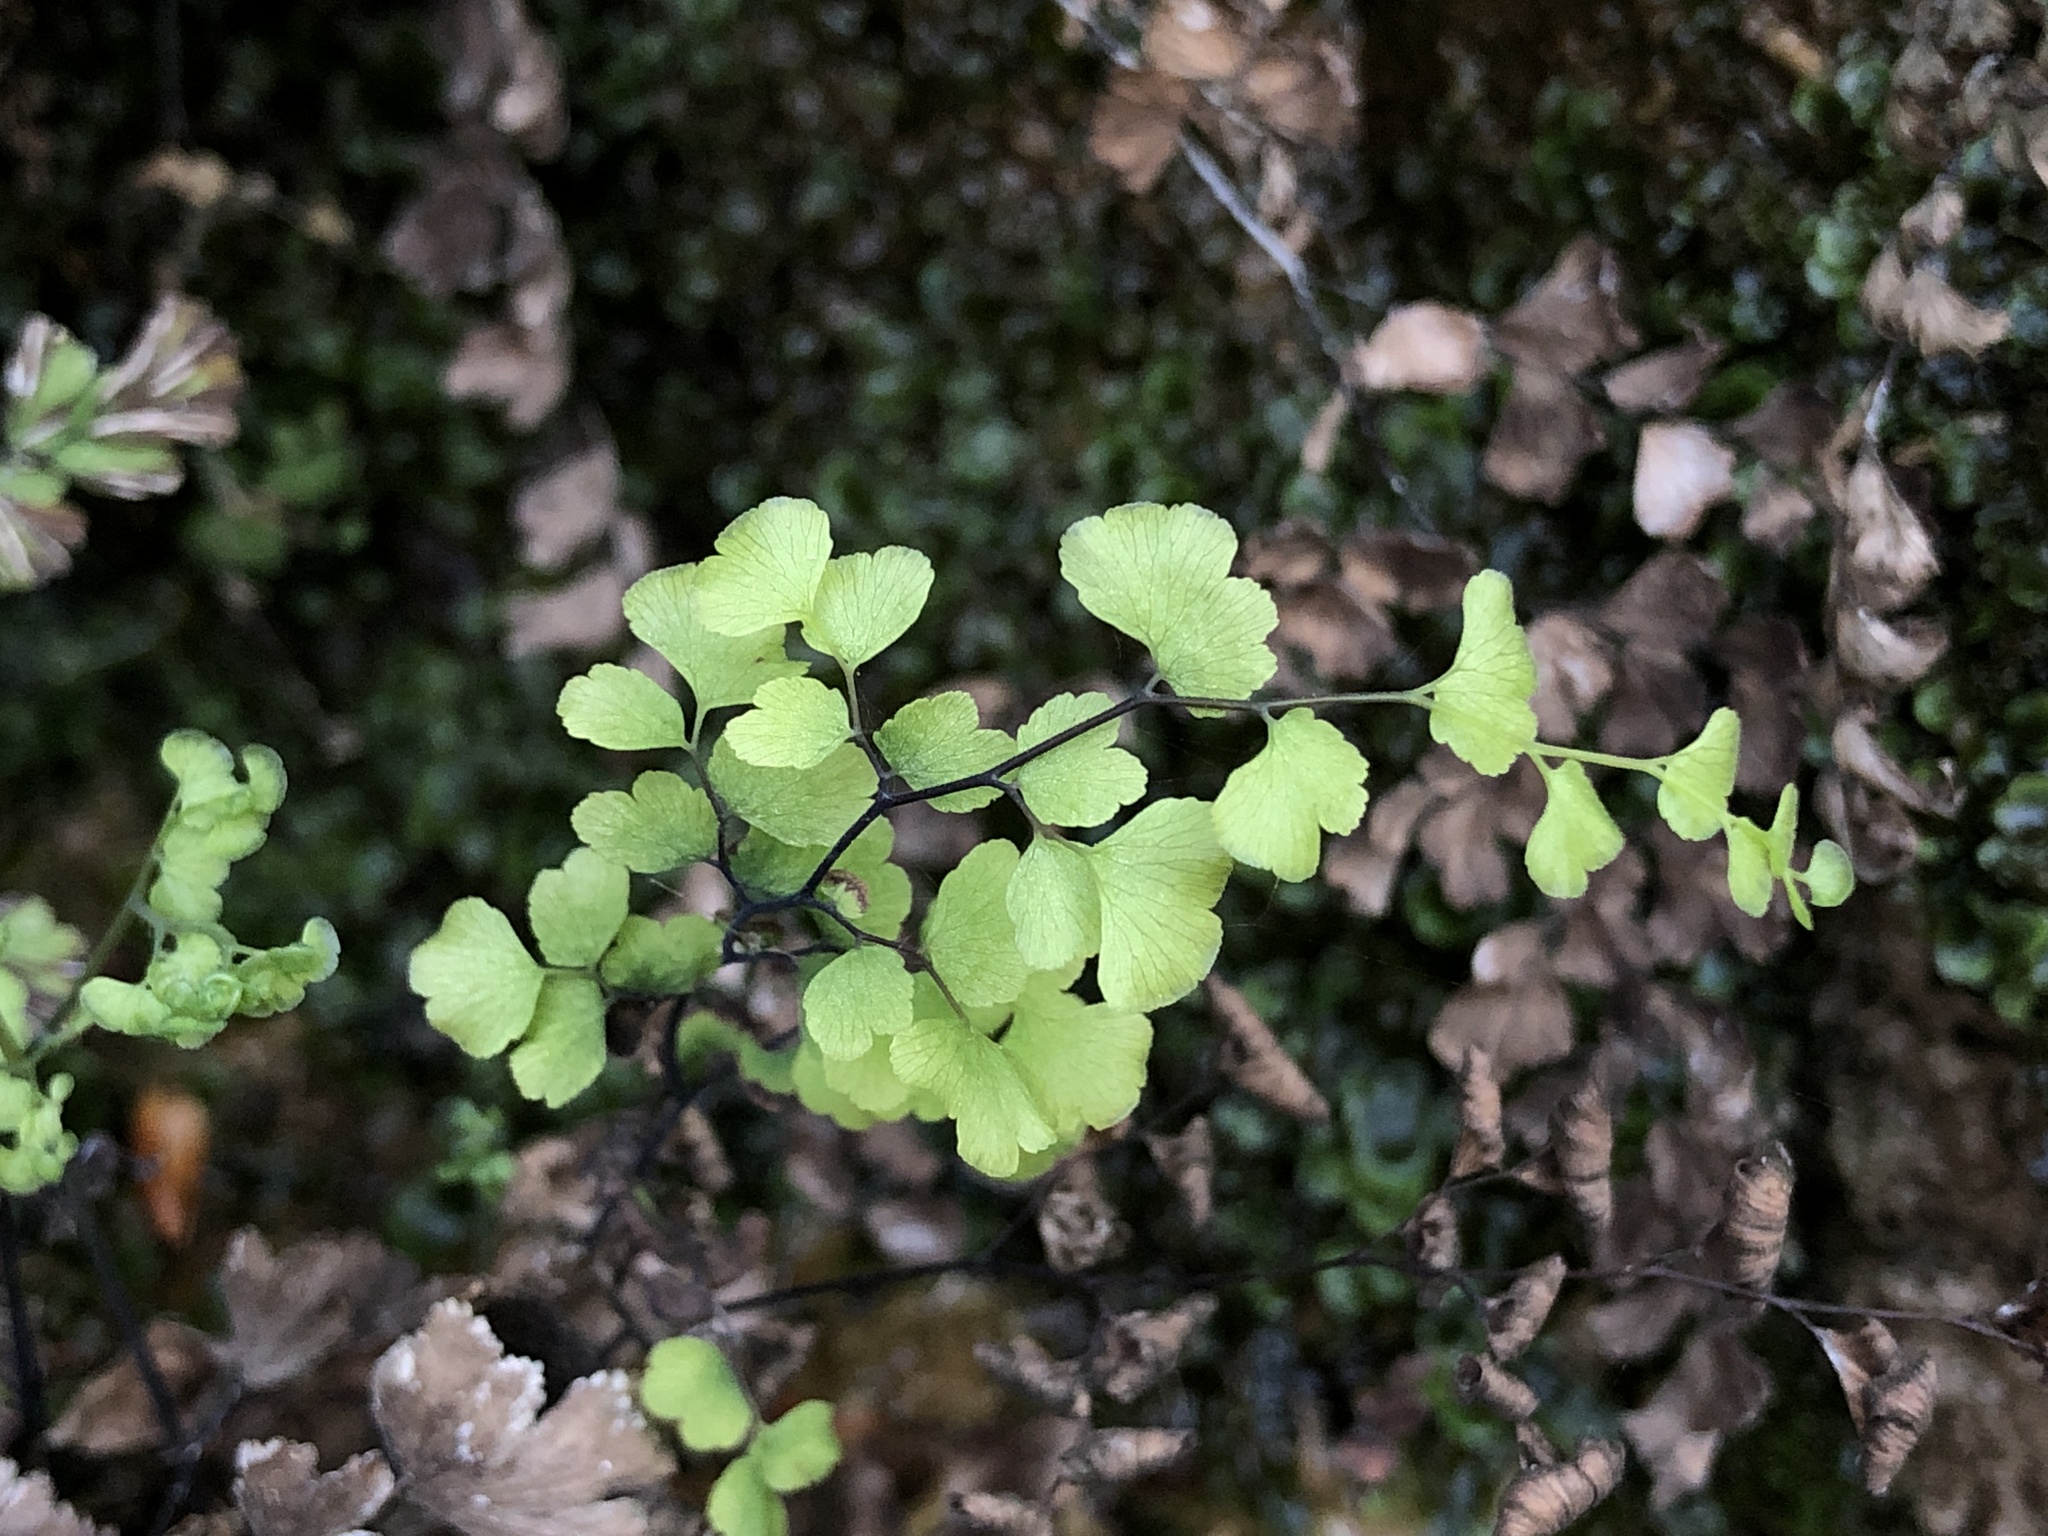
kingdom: Plantae
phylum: Tracheophyta
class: Polypodiopsida
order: Polypodiales
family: Pteridaceae
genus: Adiantum
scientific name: Adiantum capillus-veneris
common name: Maidenhair fern
